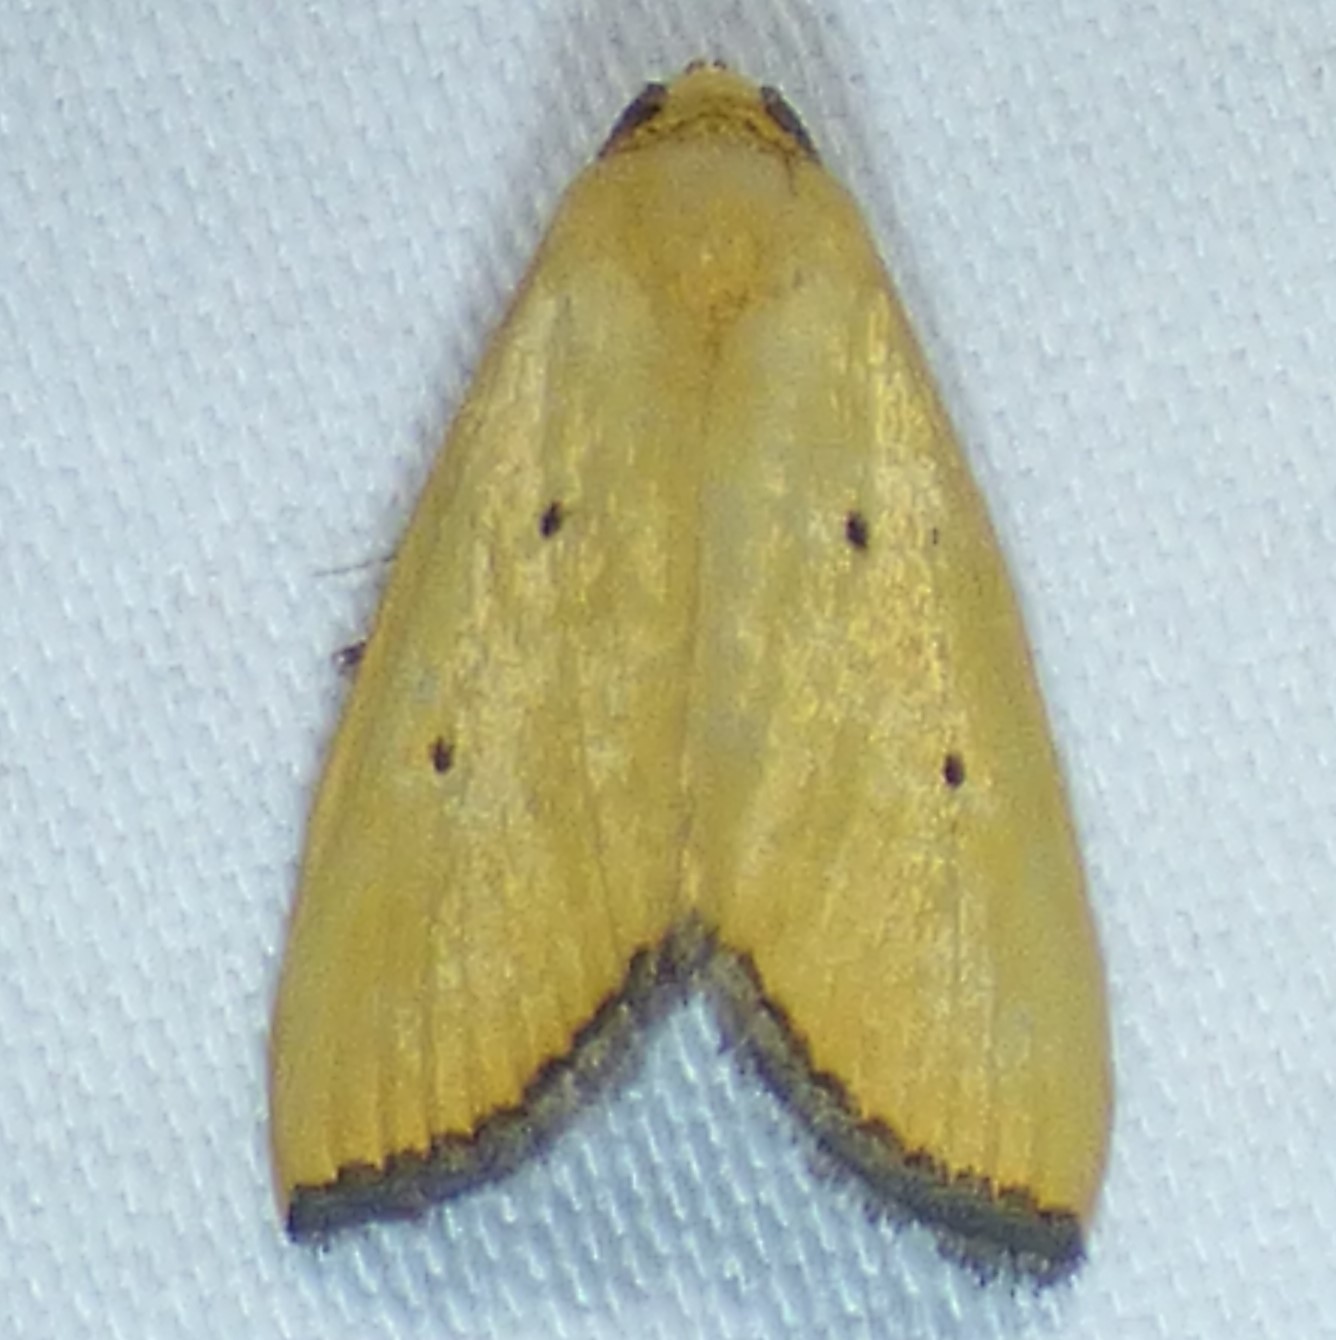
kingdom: Animalia
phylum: Arthropoda
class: Insecta
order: Lepidoptera
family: Noctuidae
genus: Marimatha
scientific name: Marimatha nigrofimbria
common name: Black-bordered lemon moth
